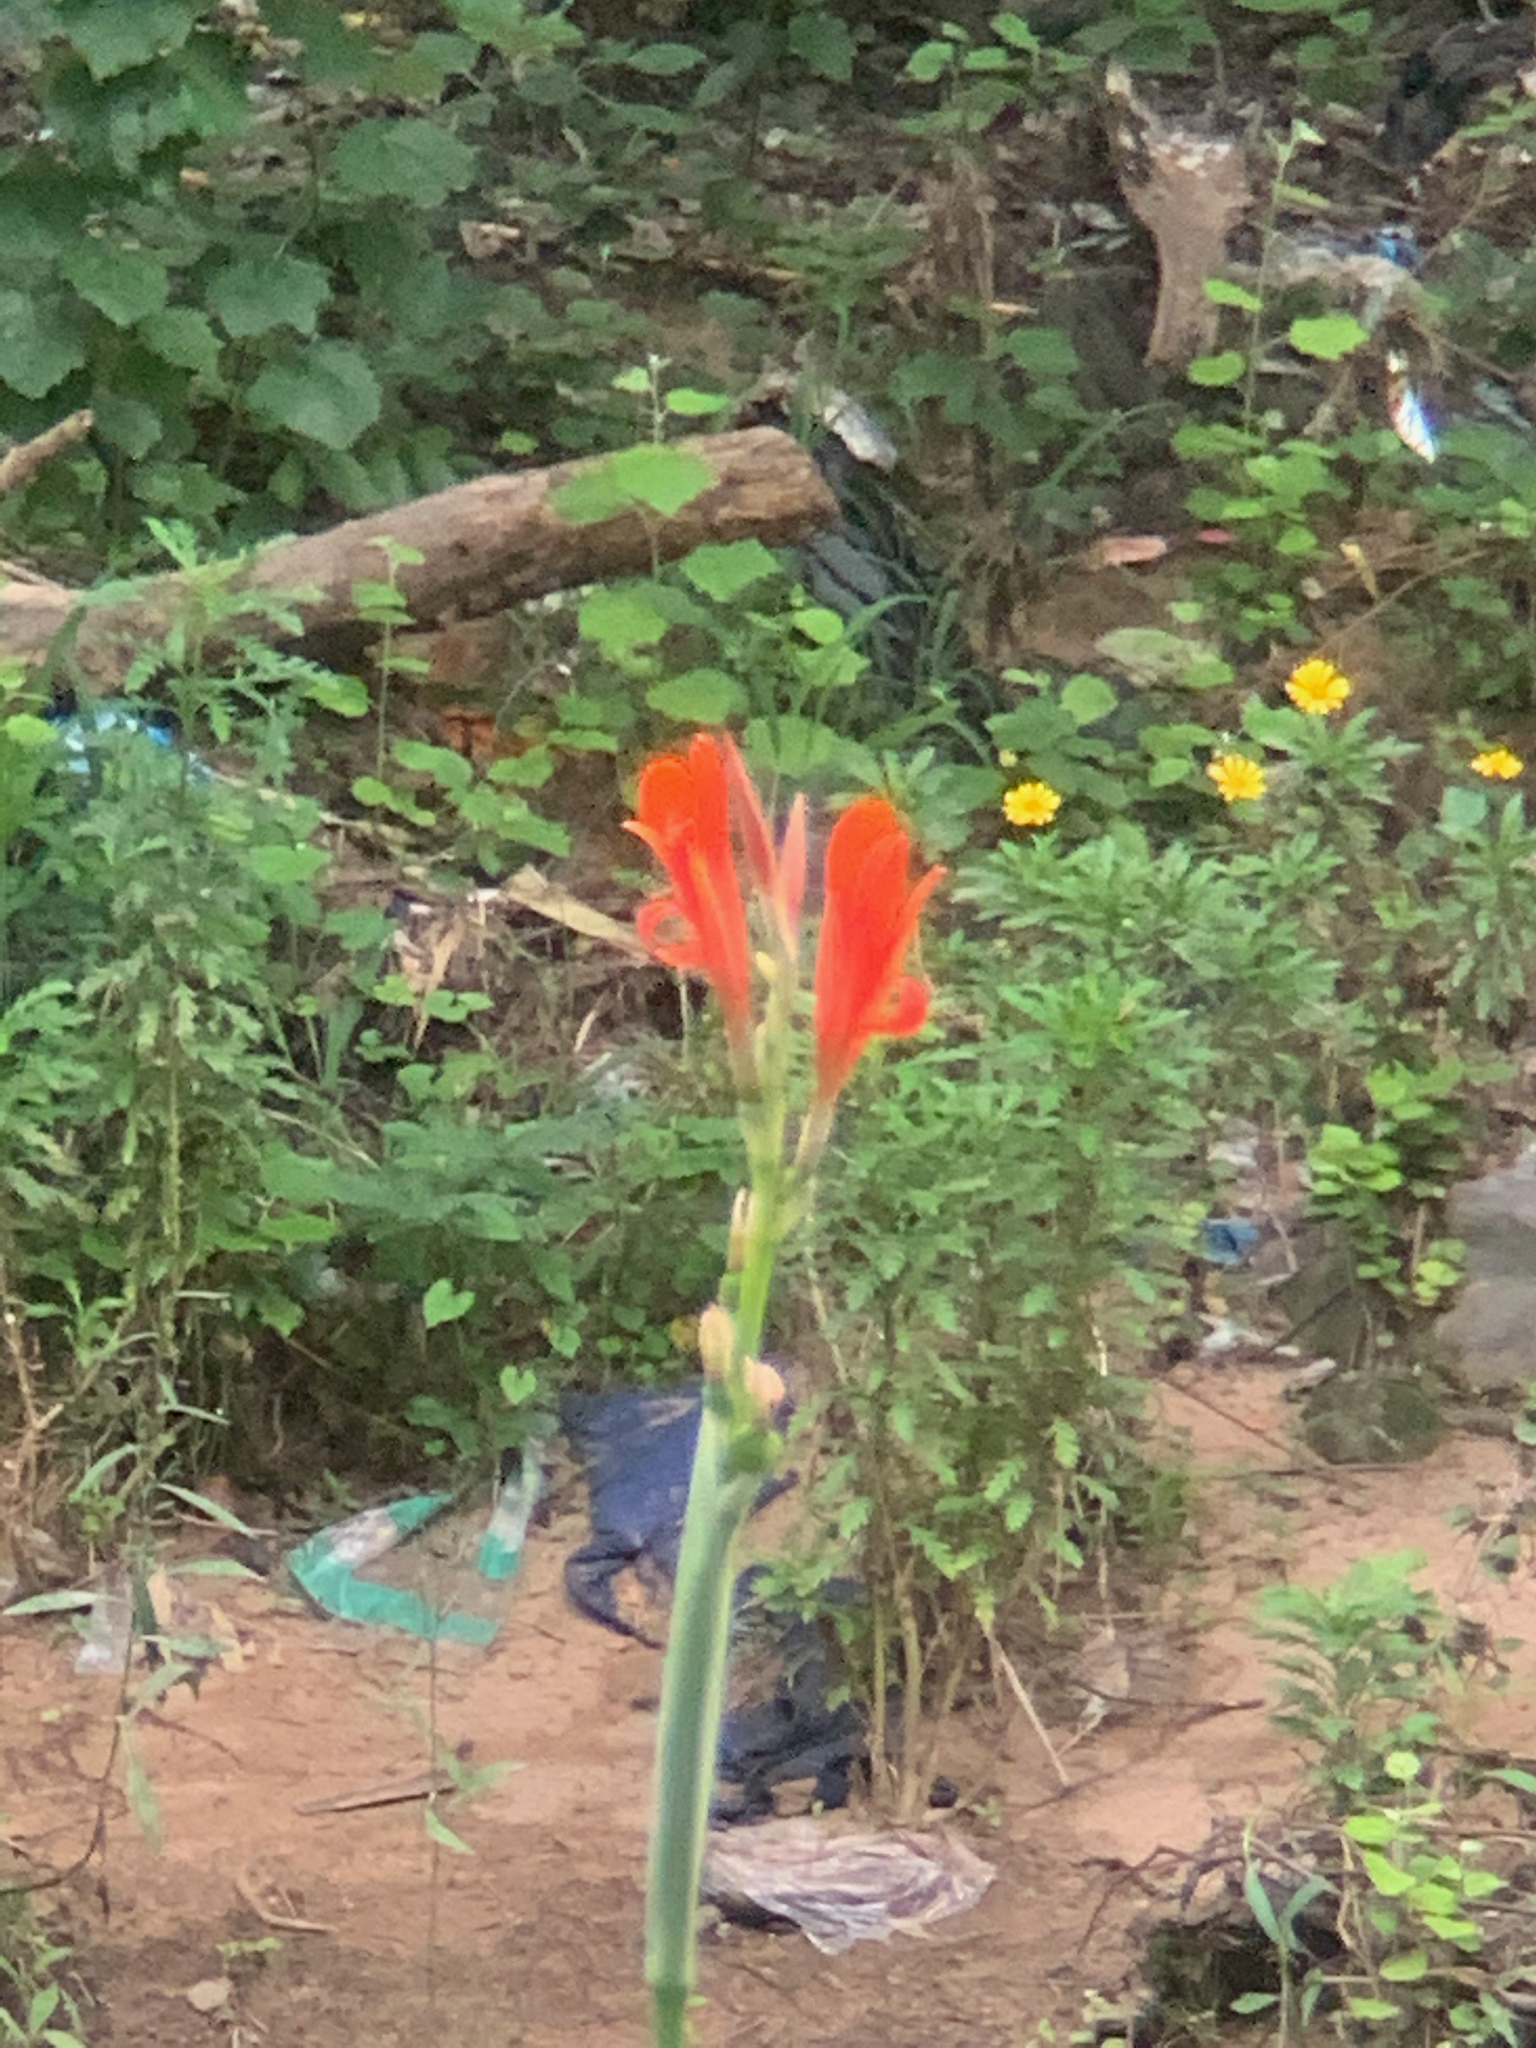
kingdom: Plantae
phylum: Tracheophyta
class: Liliopsida
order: Zingiberales
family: Cannaceae
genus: Canna
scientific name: Canna indica
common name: Indian shot
